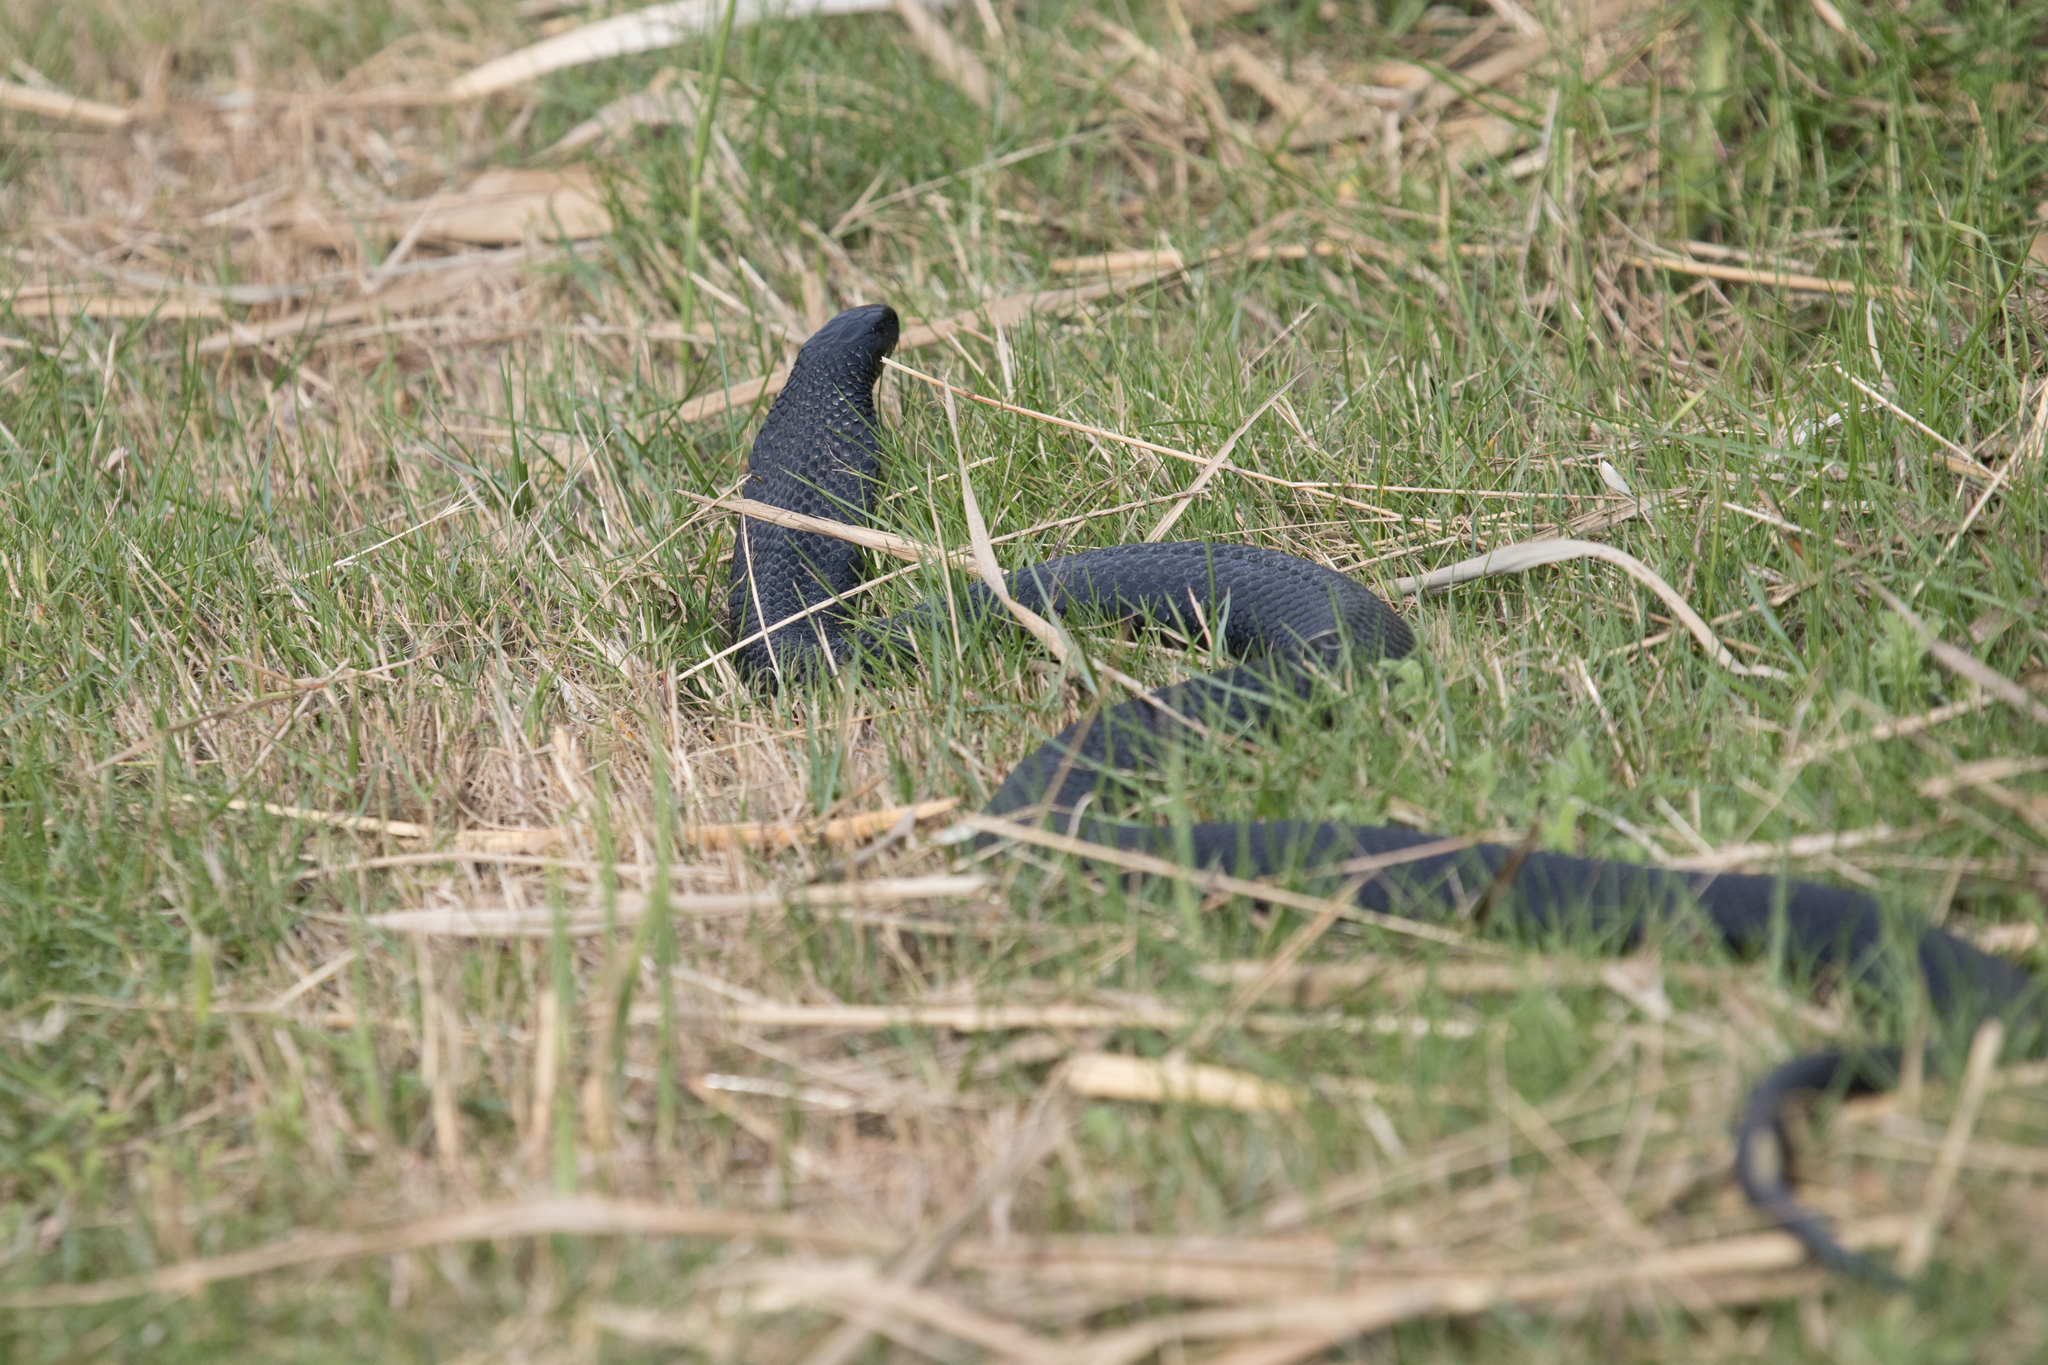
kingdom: Animalia
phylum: Chordata
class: Squamata
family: Elapidae
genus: Pseudechis
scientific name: Pseudechis porphyriacus
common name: Australian black snake
